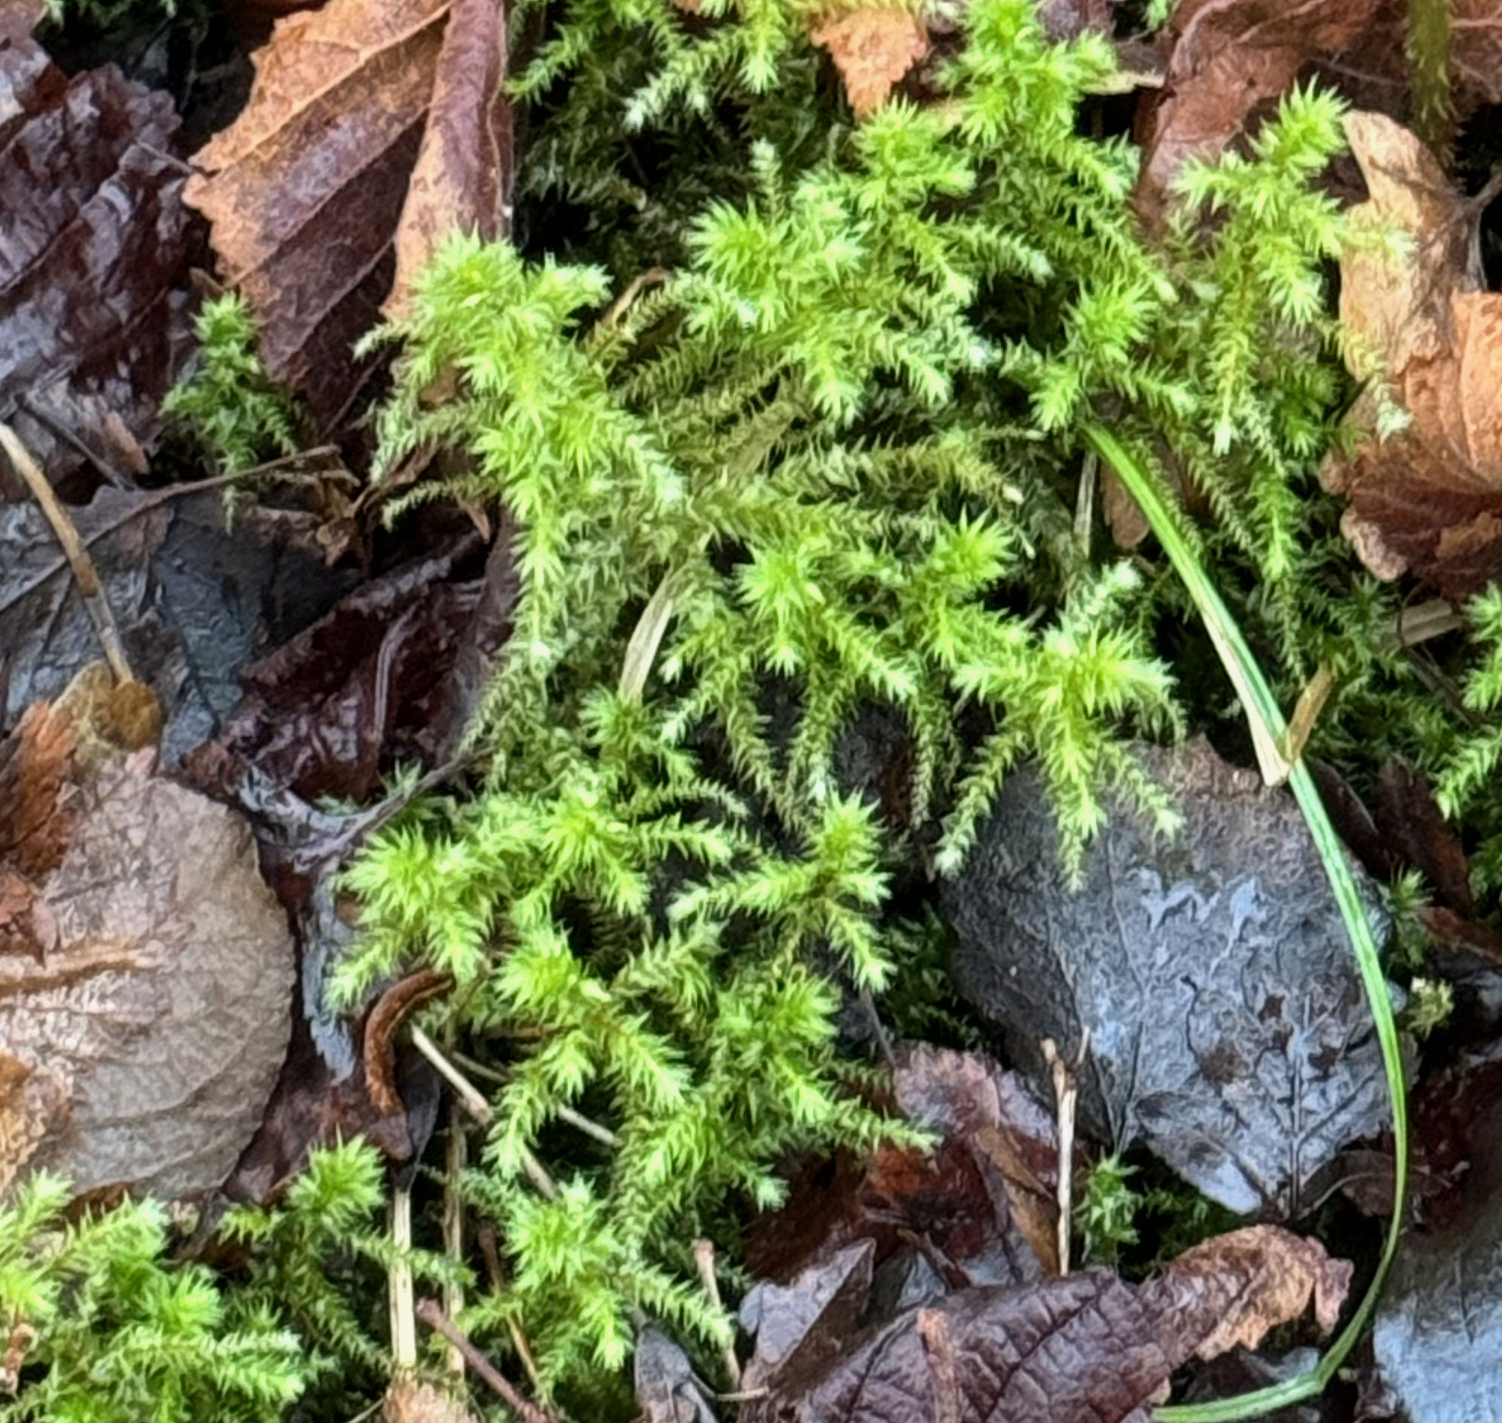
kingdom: Plantae
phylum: Bryophyta
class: Bryopsida
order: Hypnales
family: Hylocomiaceae
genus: Hylocomiadelphus
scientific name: Hylocomiadelphus triquetrus
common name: Rough goose neck moss
